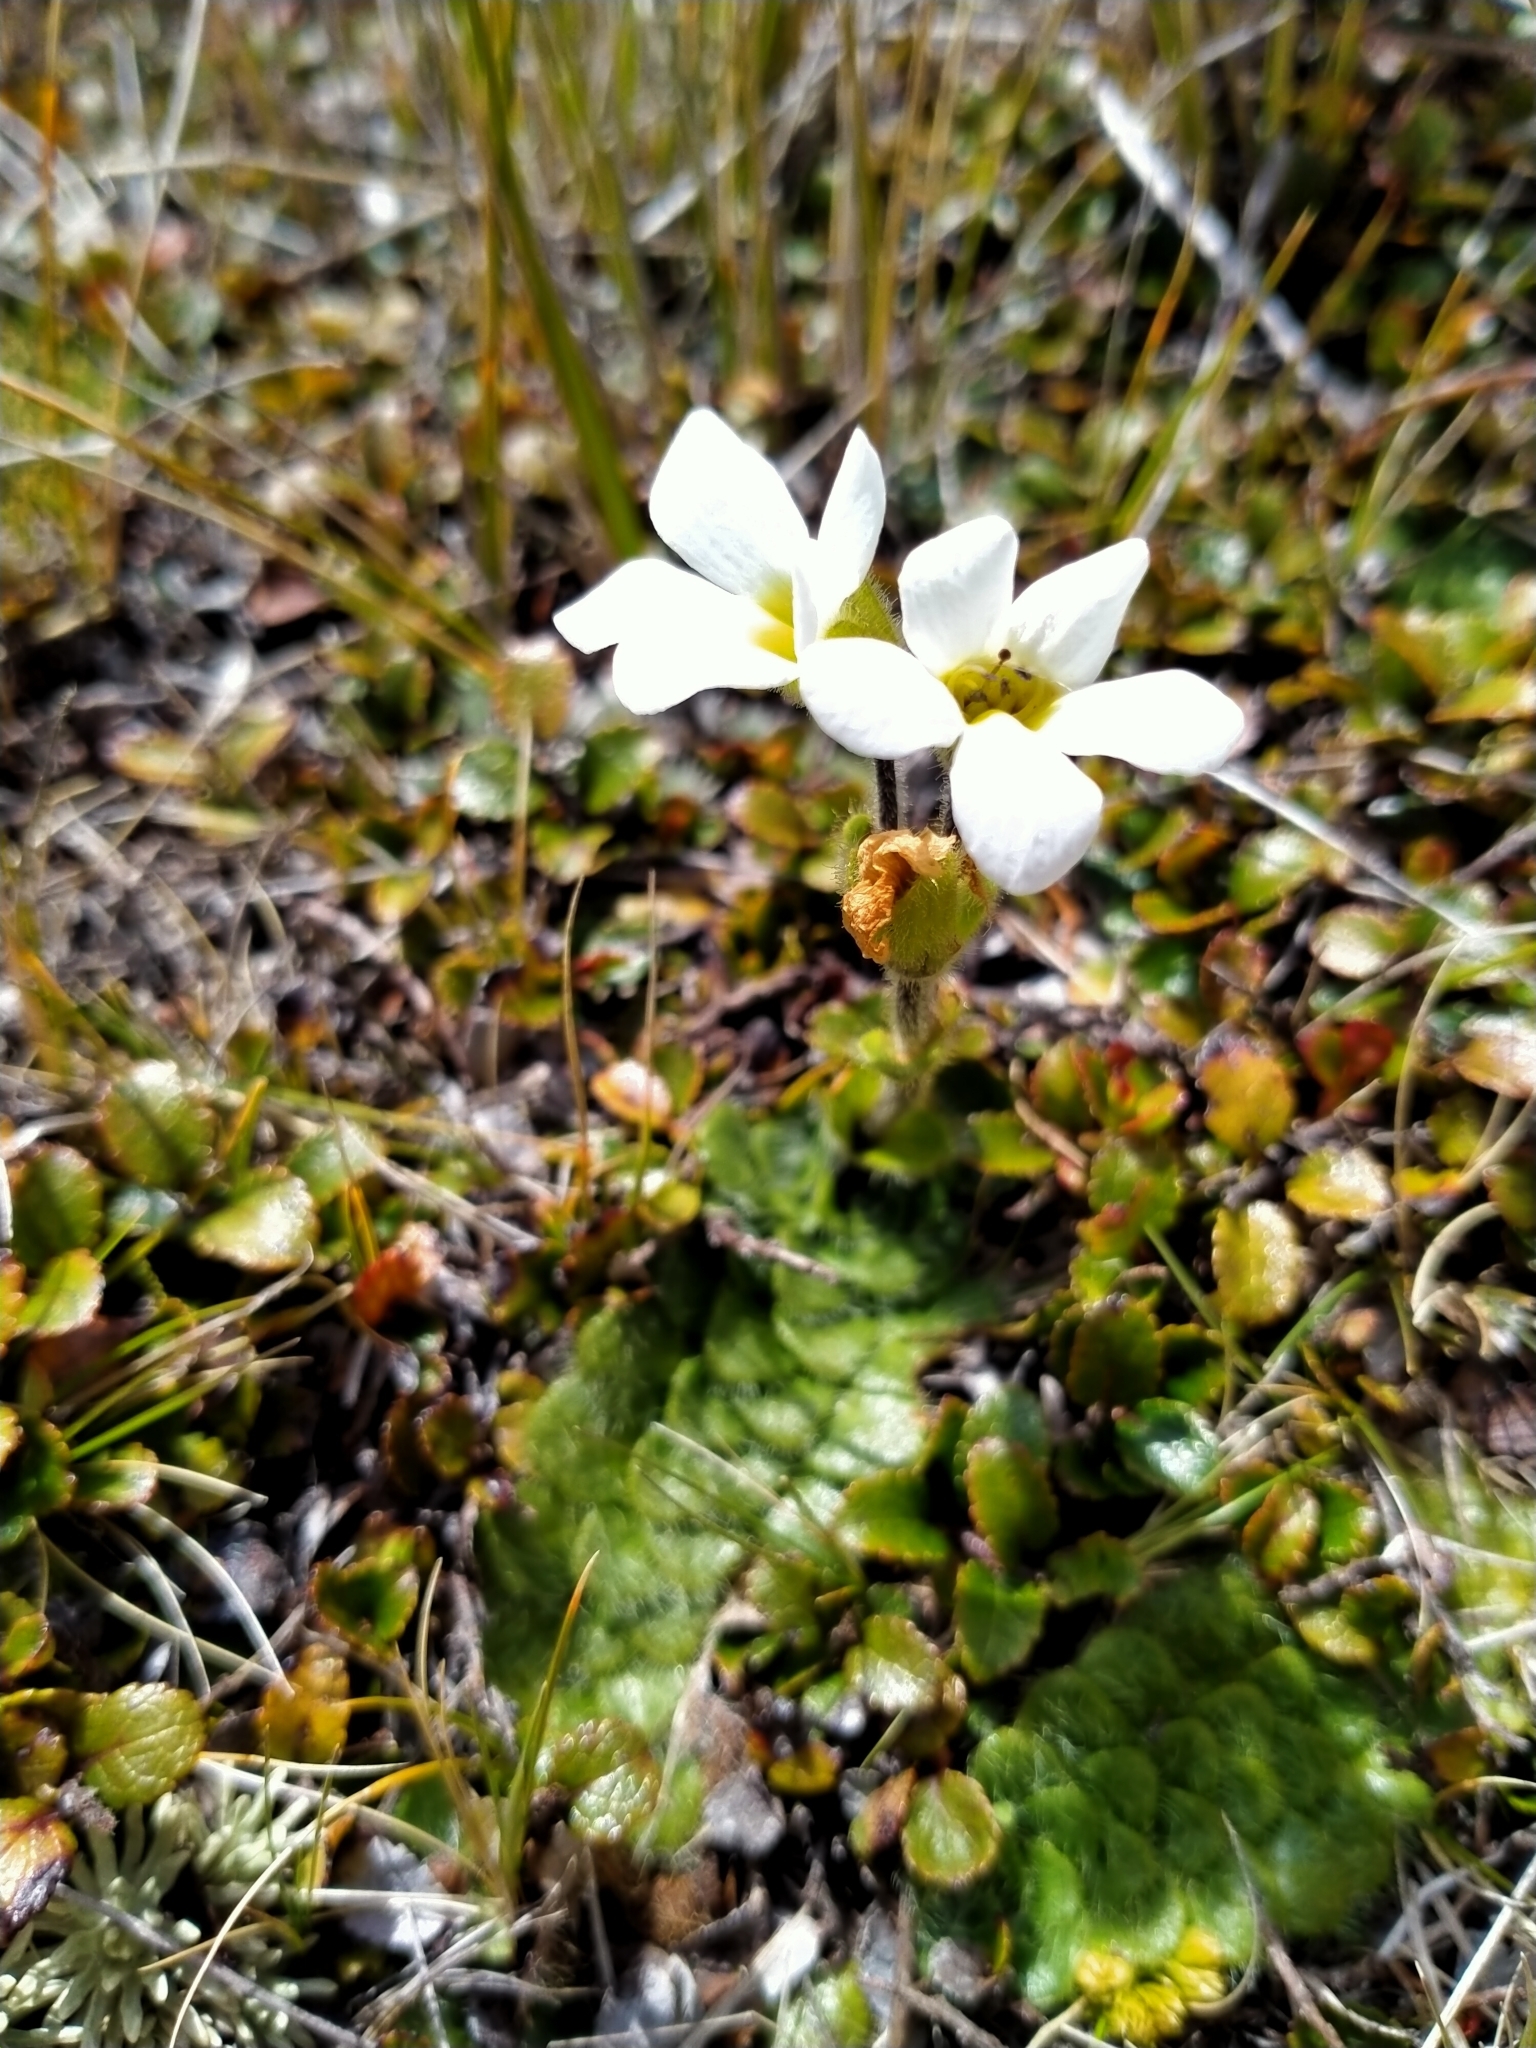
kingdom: Plantae
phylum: Tracheophyta
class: Magnoliopsida
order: Lamiales
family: Plantaginaceae
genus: Ourisia
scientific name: Ourisia glandulosa
